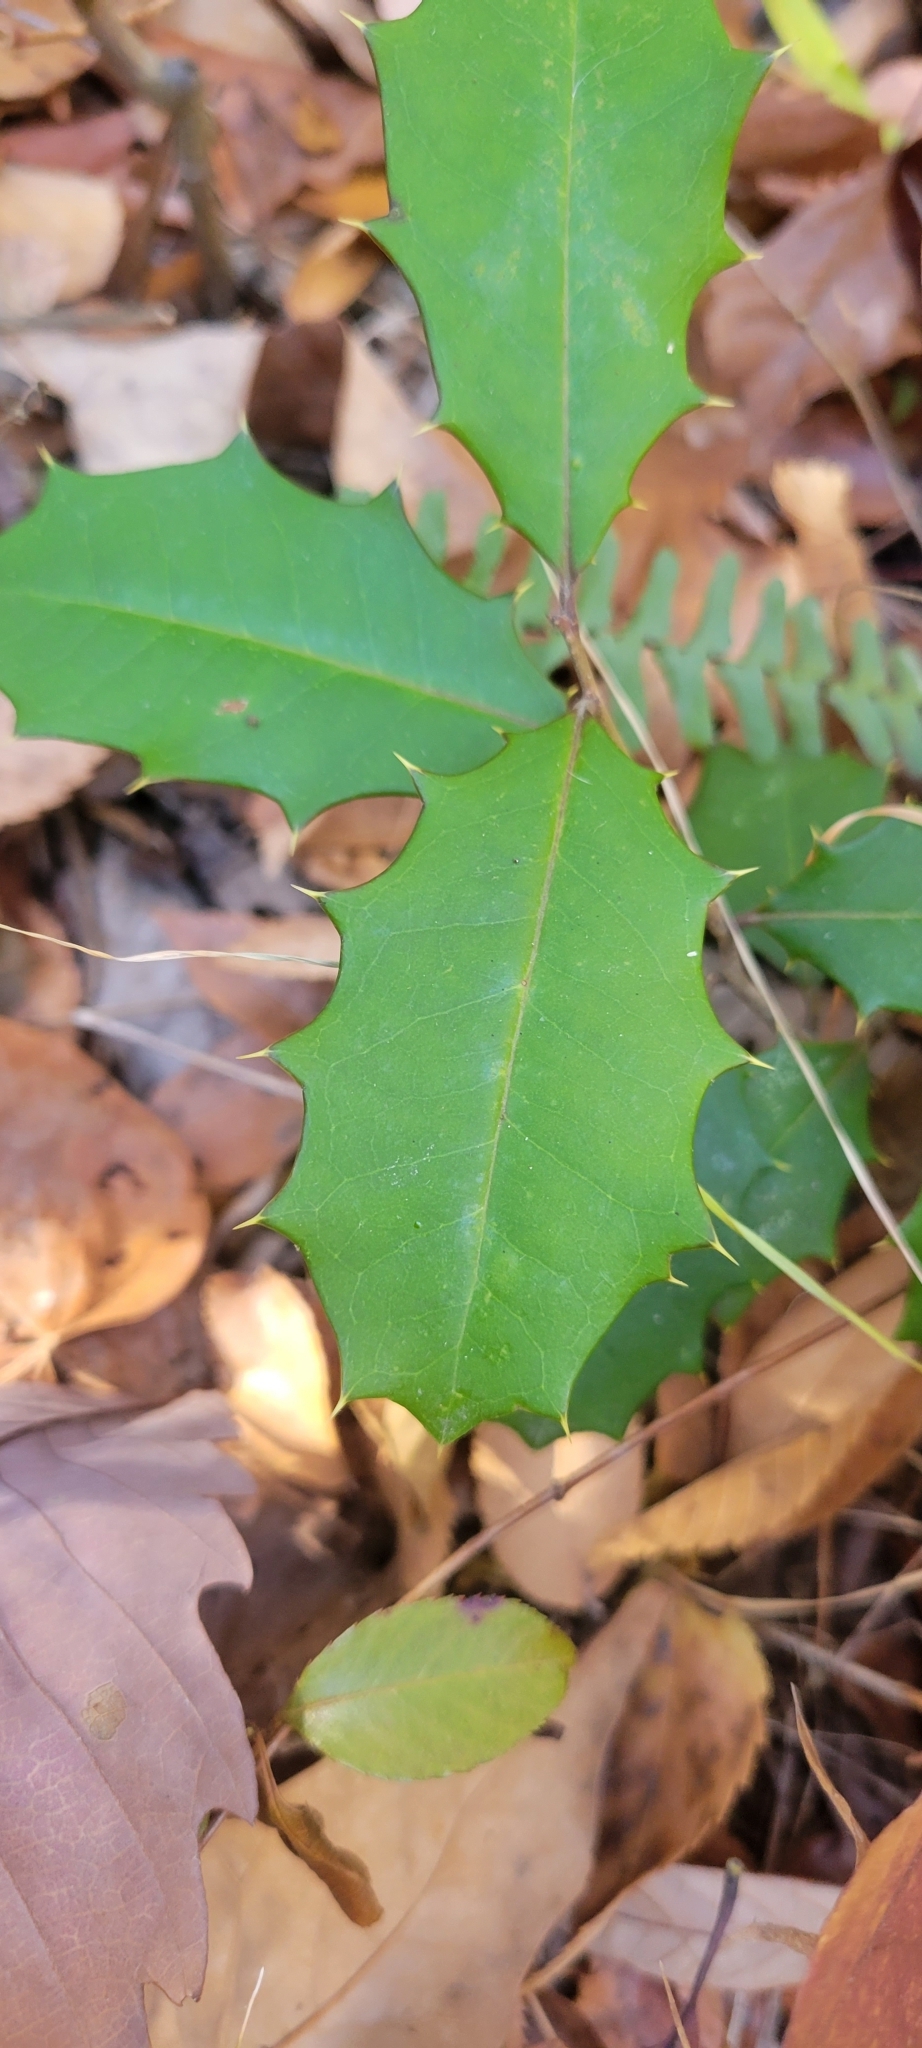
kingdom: Plantae
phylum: Tracheophyta
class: Magnoliopsida
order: Aquifoliales
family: Aquifoliaceae
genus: Ilex
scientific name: Ilex opaca
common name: American holly
